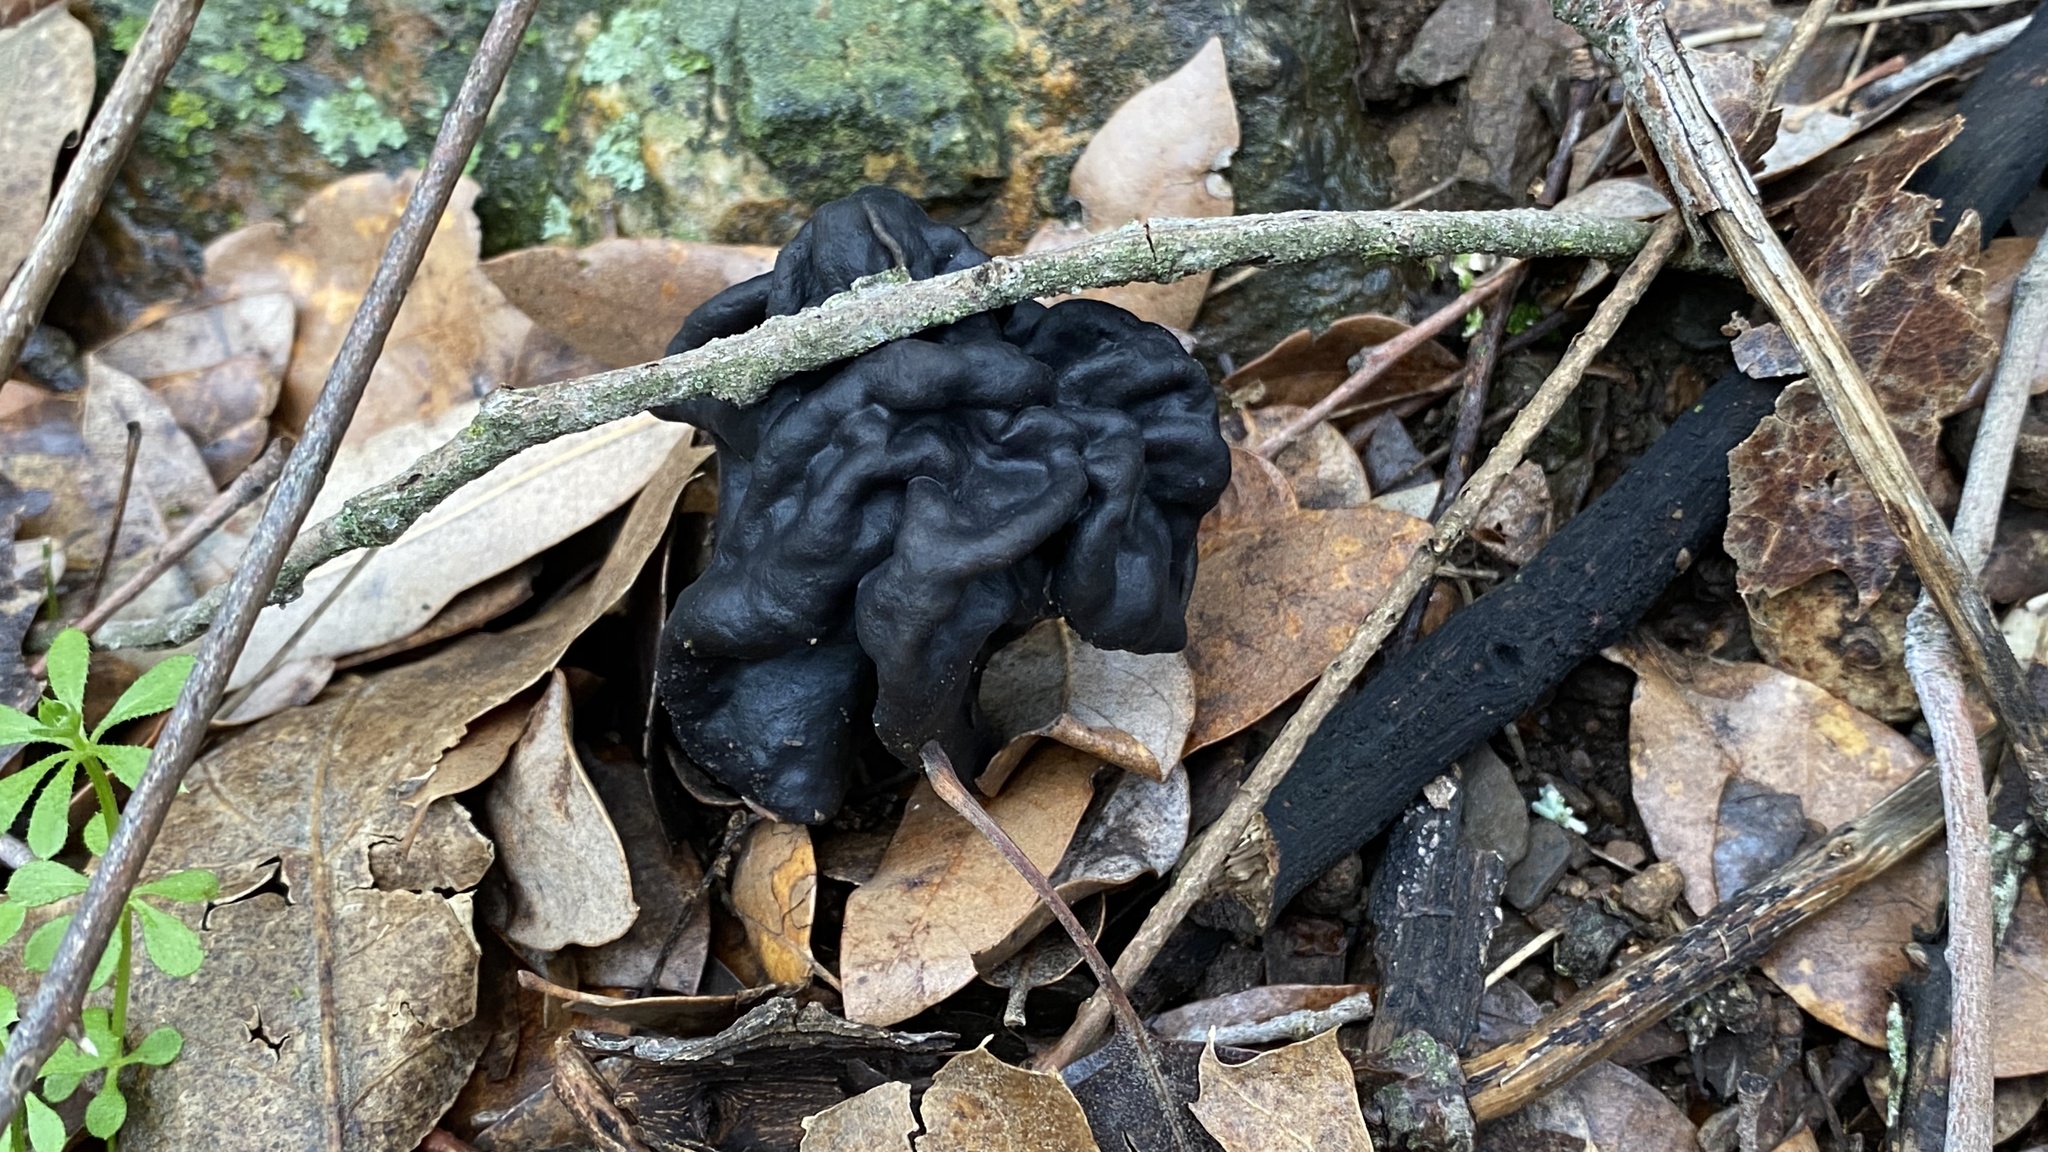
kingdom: Fungi
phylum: Ascomycota
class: Pezizomycetes
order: Pezizales
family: Helvellaceae
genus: Helvella
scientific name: Helvella dryophila
